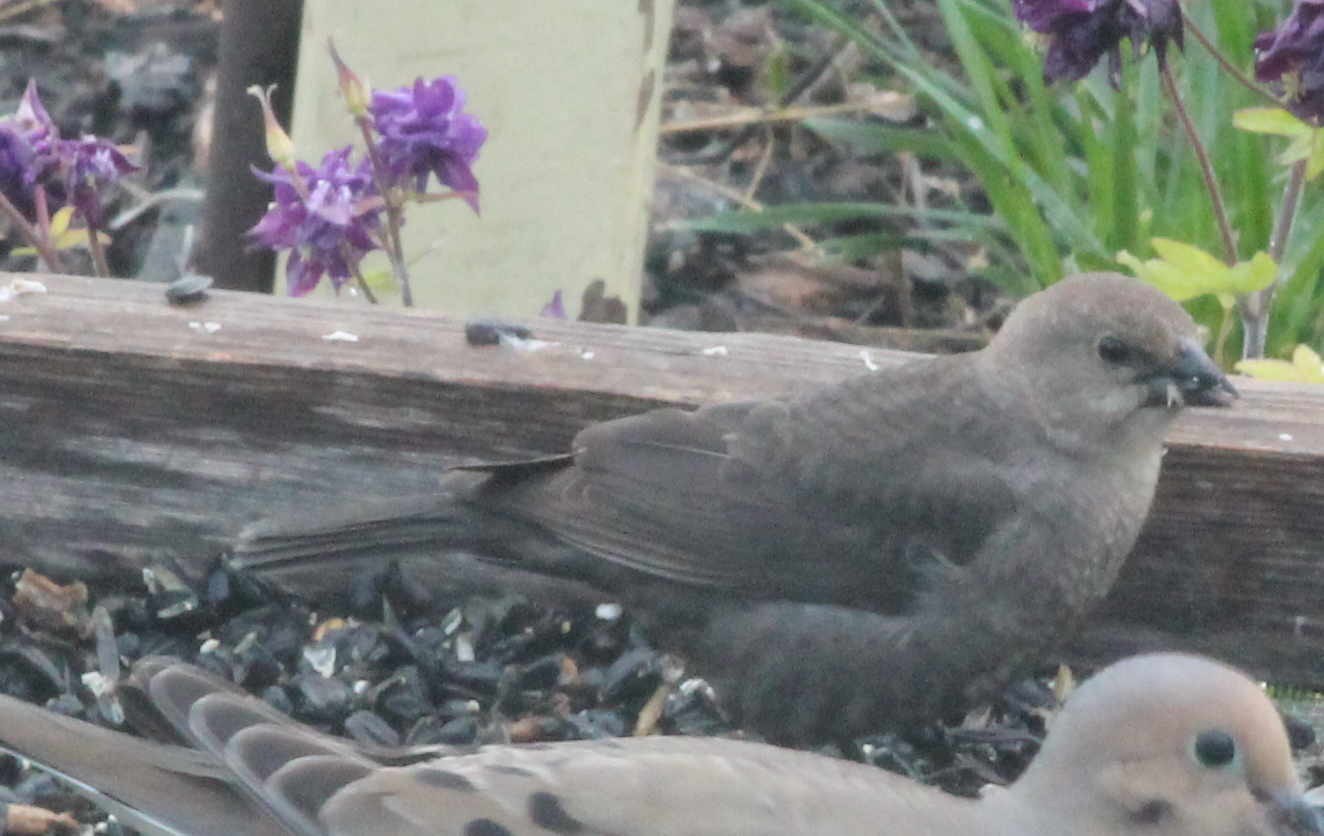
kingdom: Animalia
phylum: Chordata
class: Aves
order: Passeriformes
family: Icteridae
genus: Molothrus
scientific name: Molothrus ater
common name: Brown-headed cowbird
